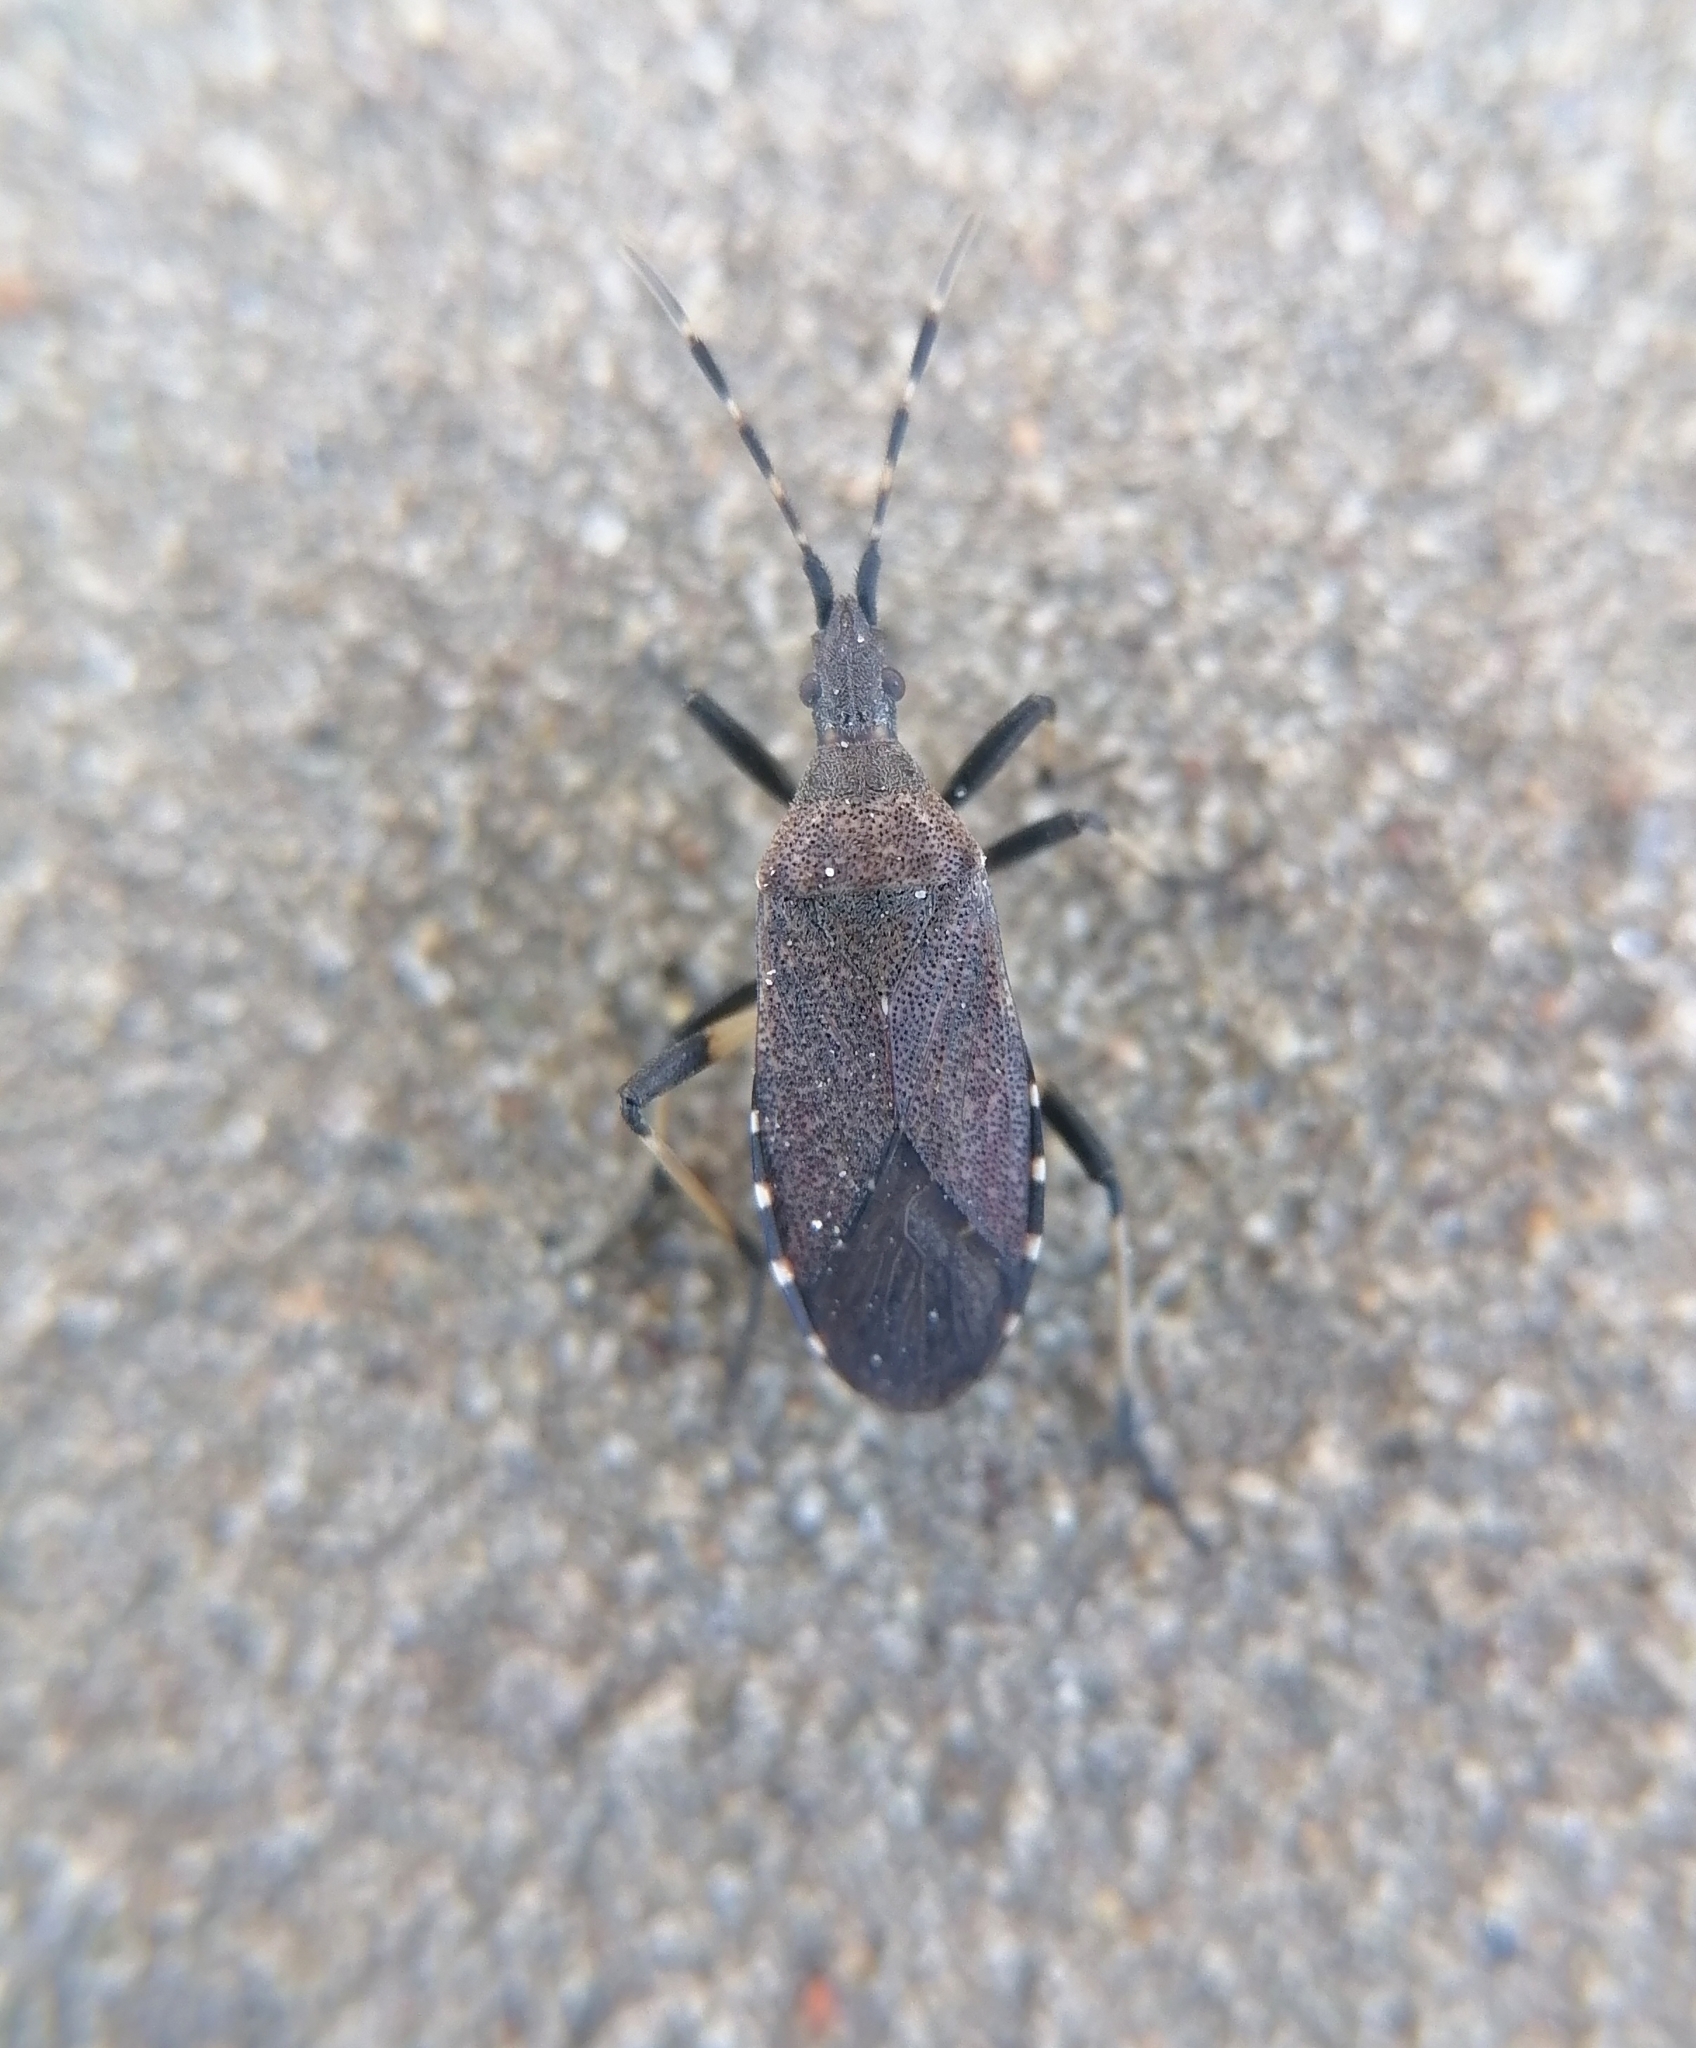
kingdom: Animalia
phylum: Arthropoda
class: Insecta
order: Hemiptera
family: Stenocephalidae
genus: Dicranocephalus
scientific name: Dicranocephalus medius
